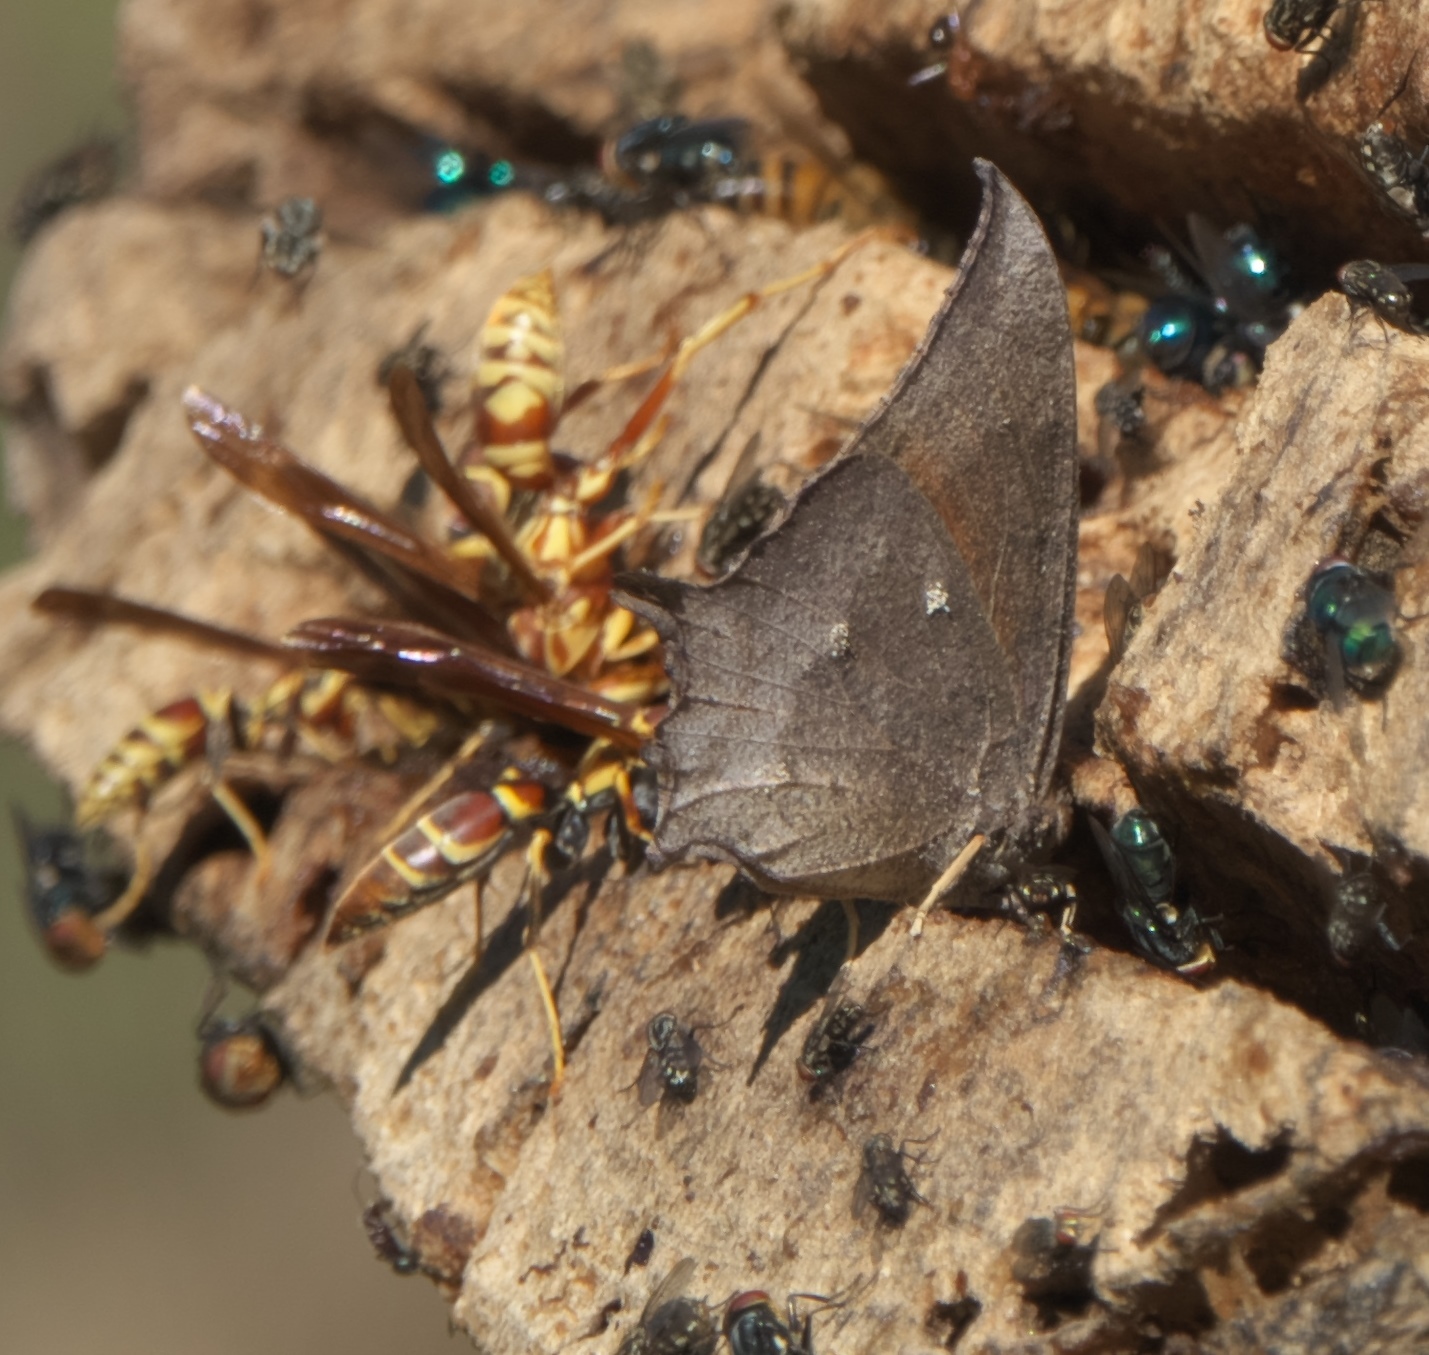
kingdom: Animalia
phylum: Arthropoda
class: Insecta
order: Lepidoptera
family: Nymphalidae
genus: Anaea
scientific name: Anaea aidea
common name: Tropical leafwing
